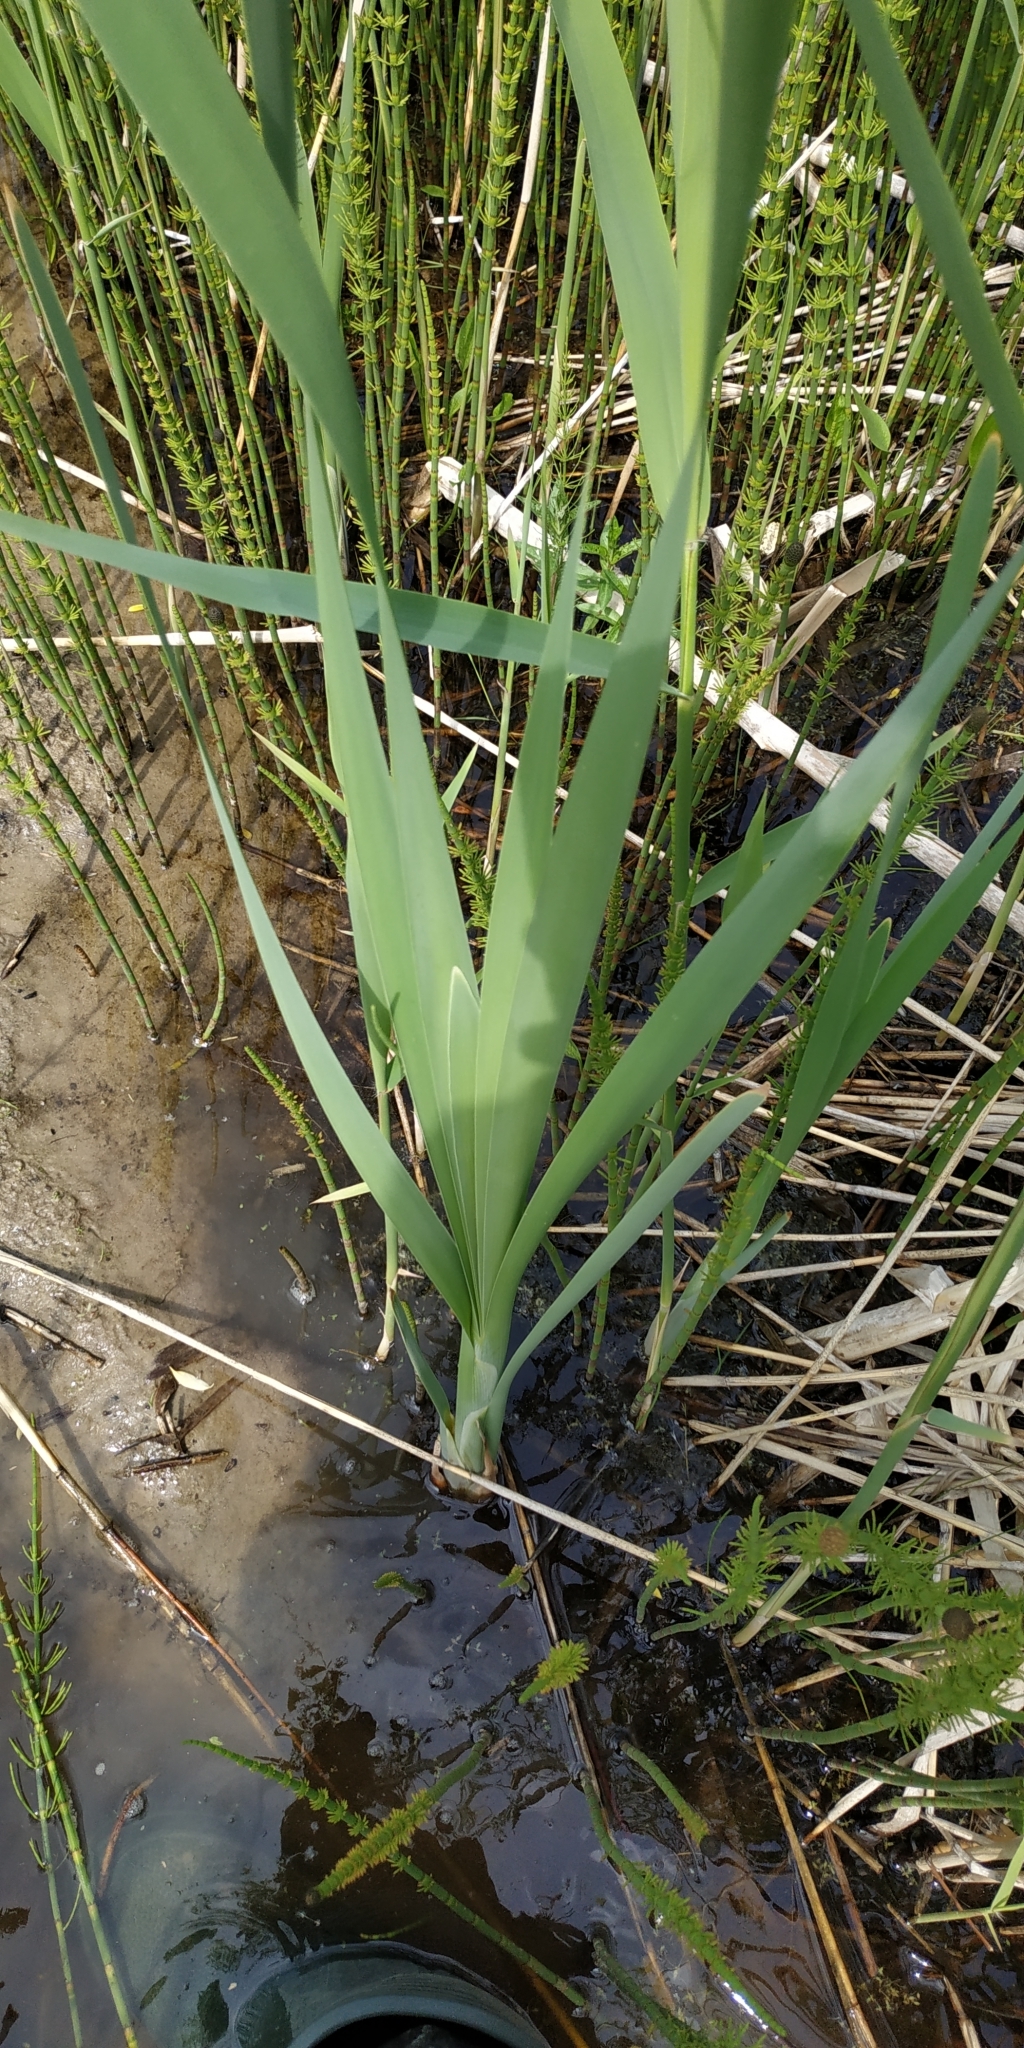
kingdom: Plantae
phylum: Tracheophyta
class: Liliopsida
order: Poales
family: Typhaceae
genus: Typha
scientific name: Typha latifolia
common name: Broadleaf cattail
